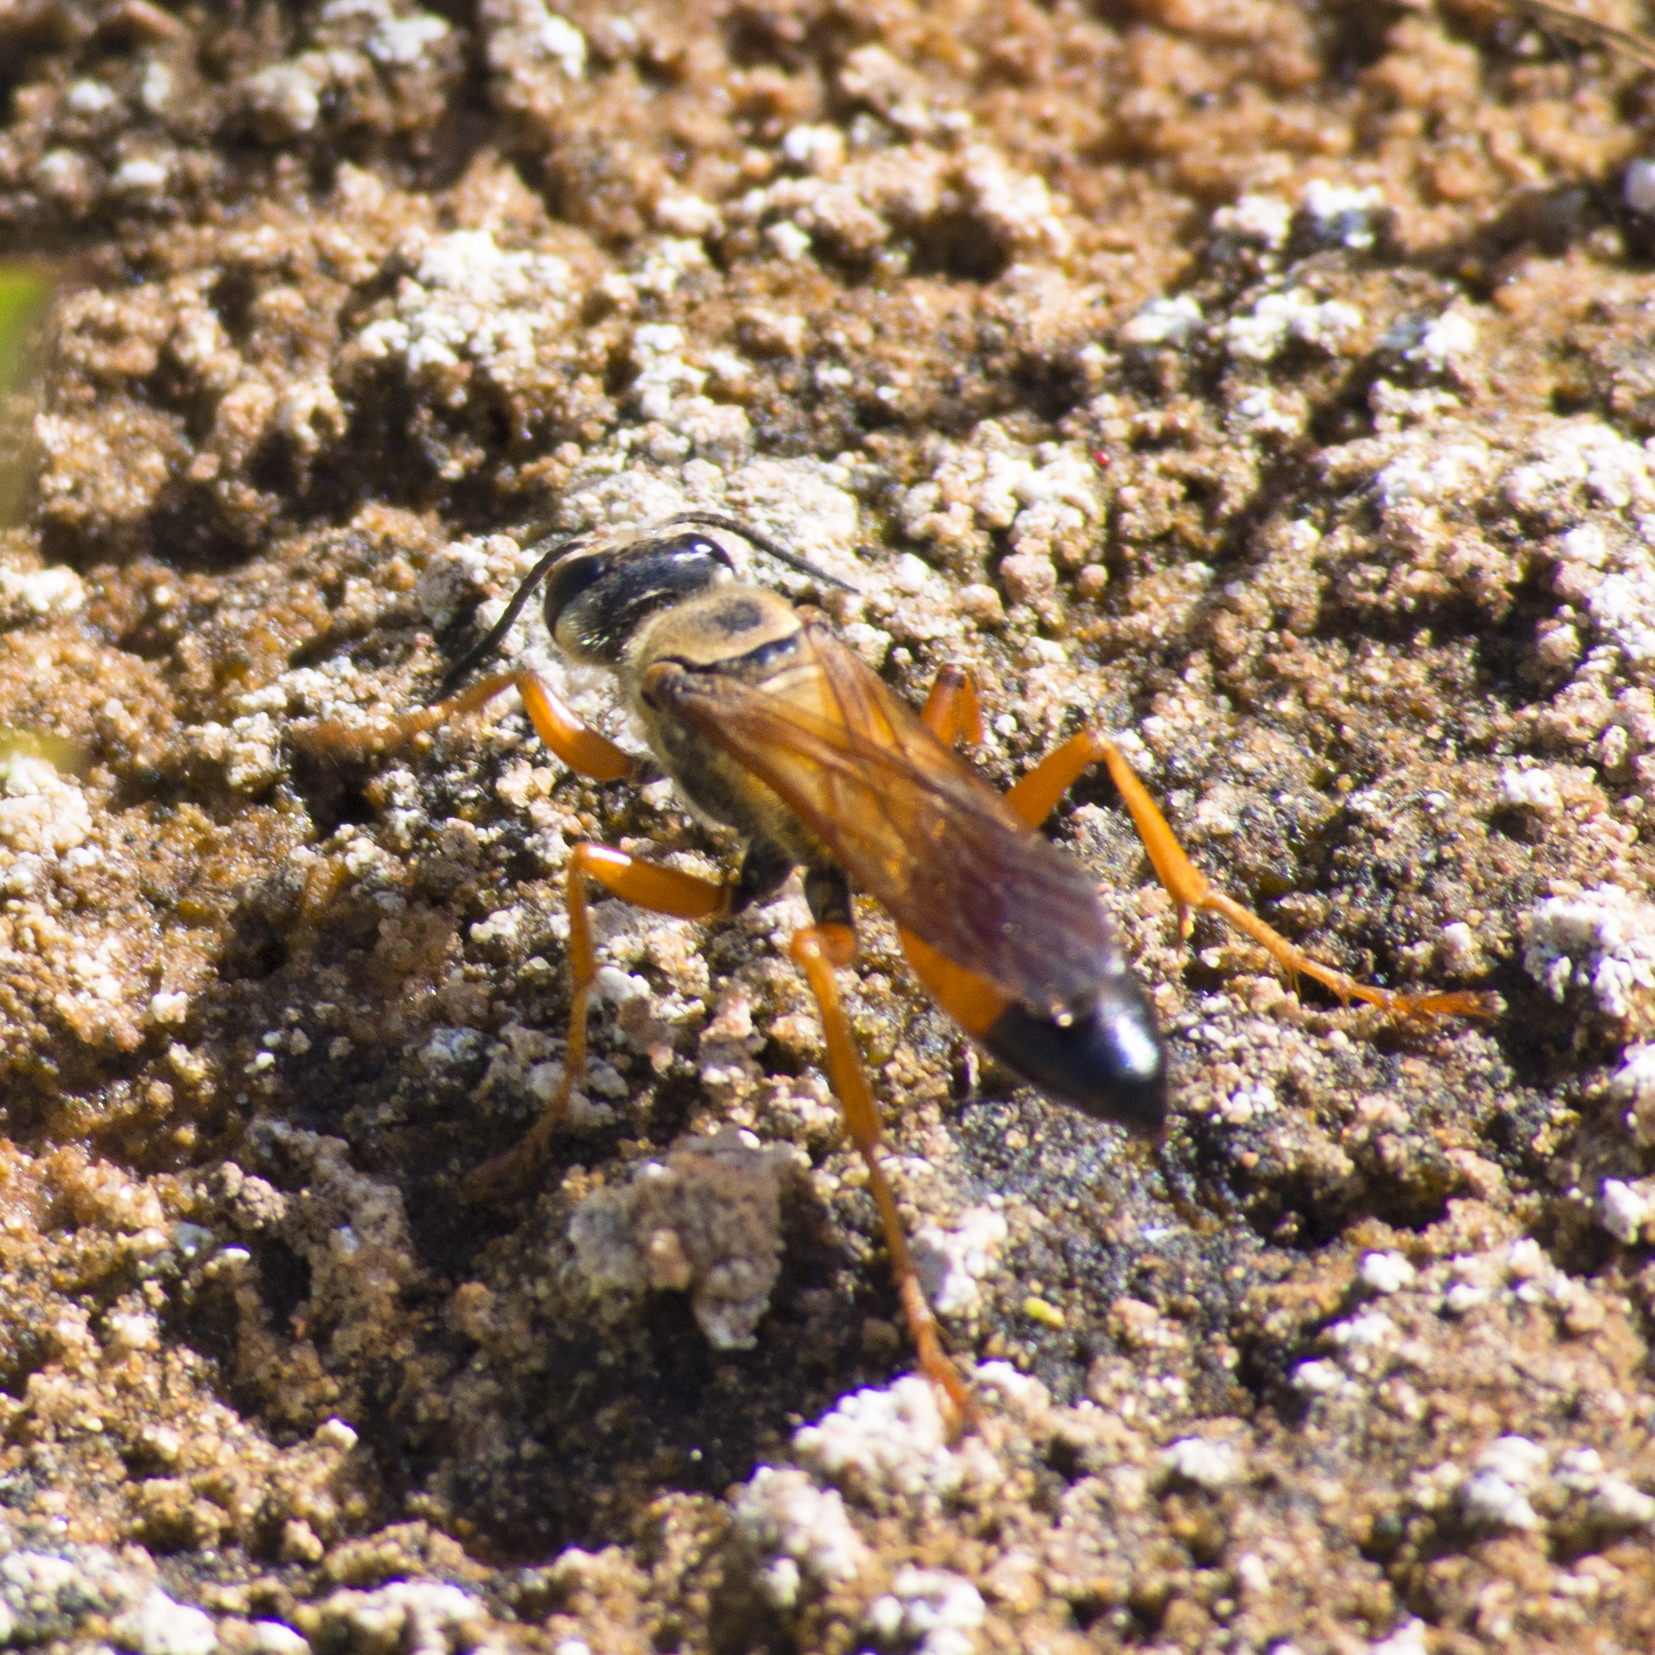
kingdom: Animalia
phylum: Arthropoda
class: Insecta
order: Hymenoptera
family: Sphecidae
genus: Sphex
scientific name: Sphex ichneumoneus
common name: Great golden digger wasp
